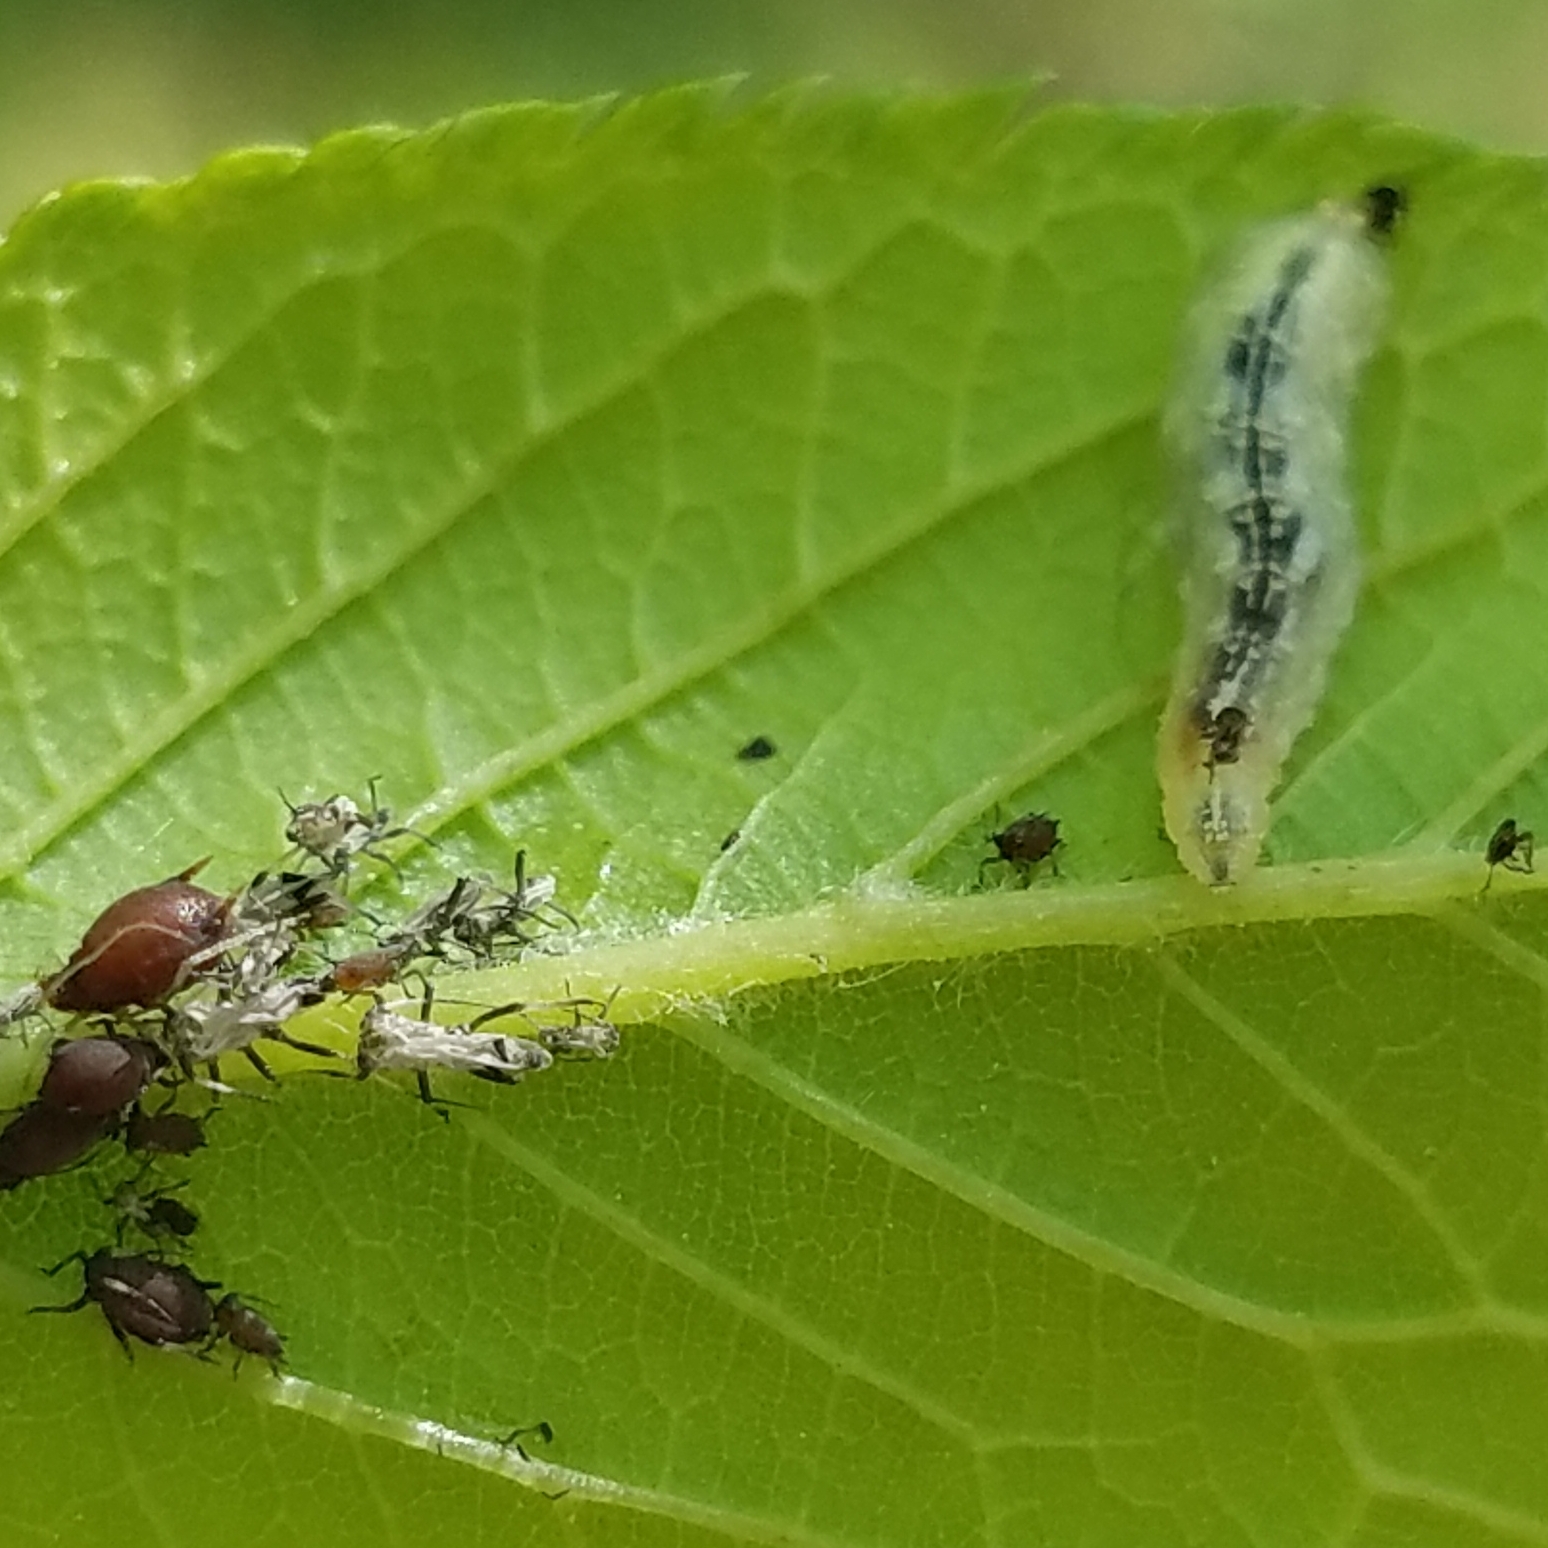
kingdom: Animalia
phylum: Arthropoda
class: Insecta
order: Diptera
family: Syrphidae
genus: Syrphus
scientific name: Syrphus
